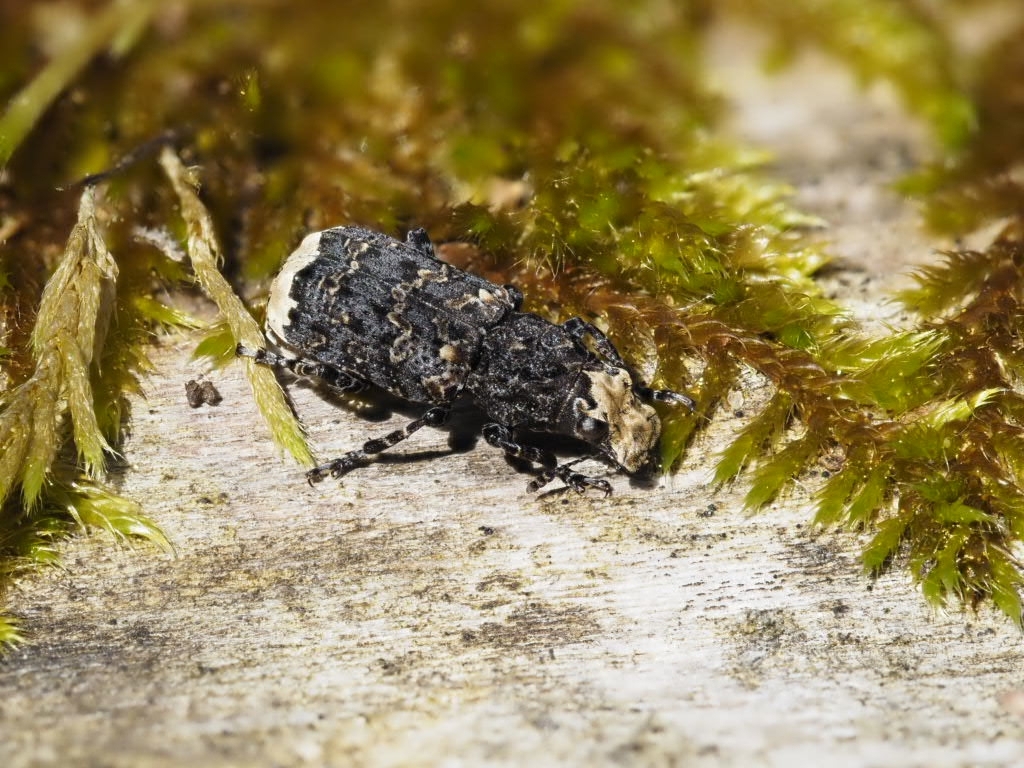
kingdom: Animalia
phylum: Arthropoda
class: Insecta
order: Coleoptera
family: Anthribidae
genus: Platyrhinus
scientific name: Platyrhinus resinosus
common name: Cramp-ball fungus weevil
